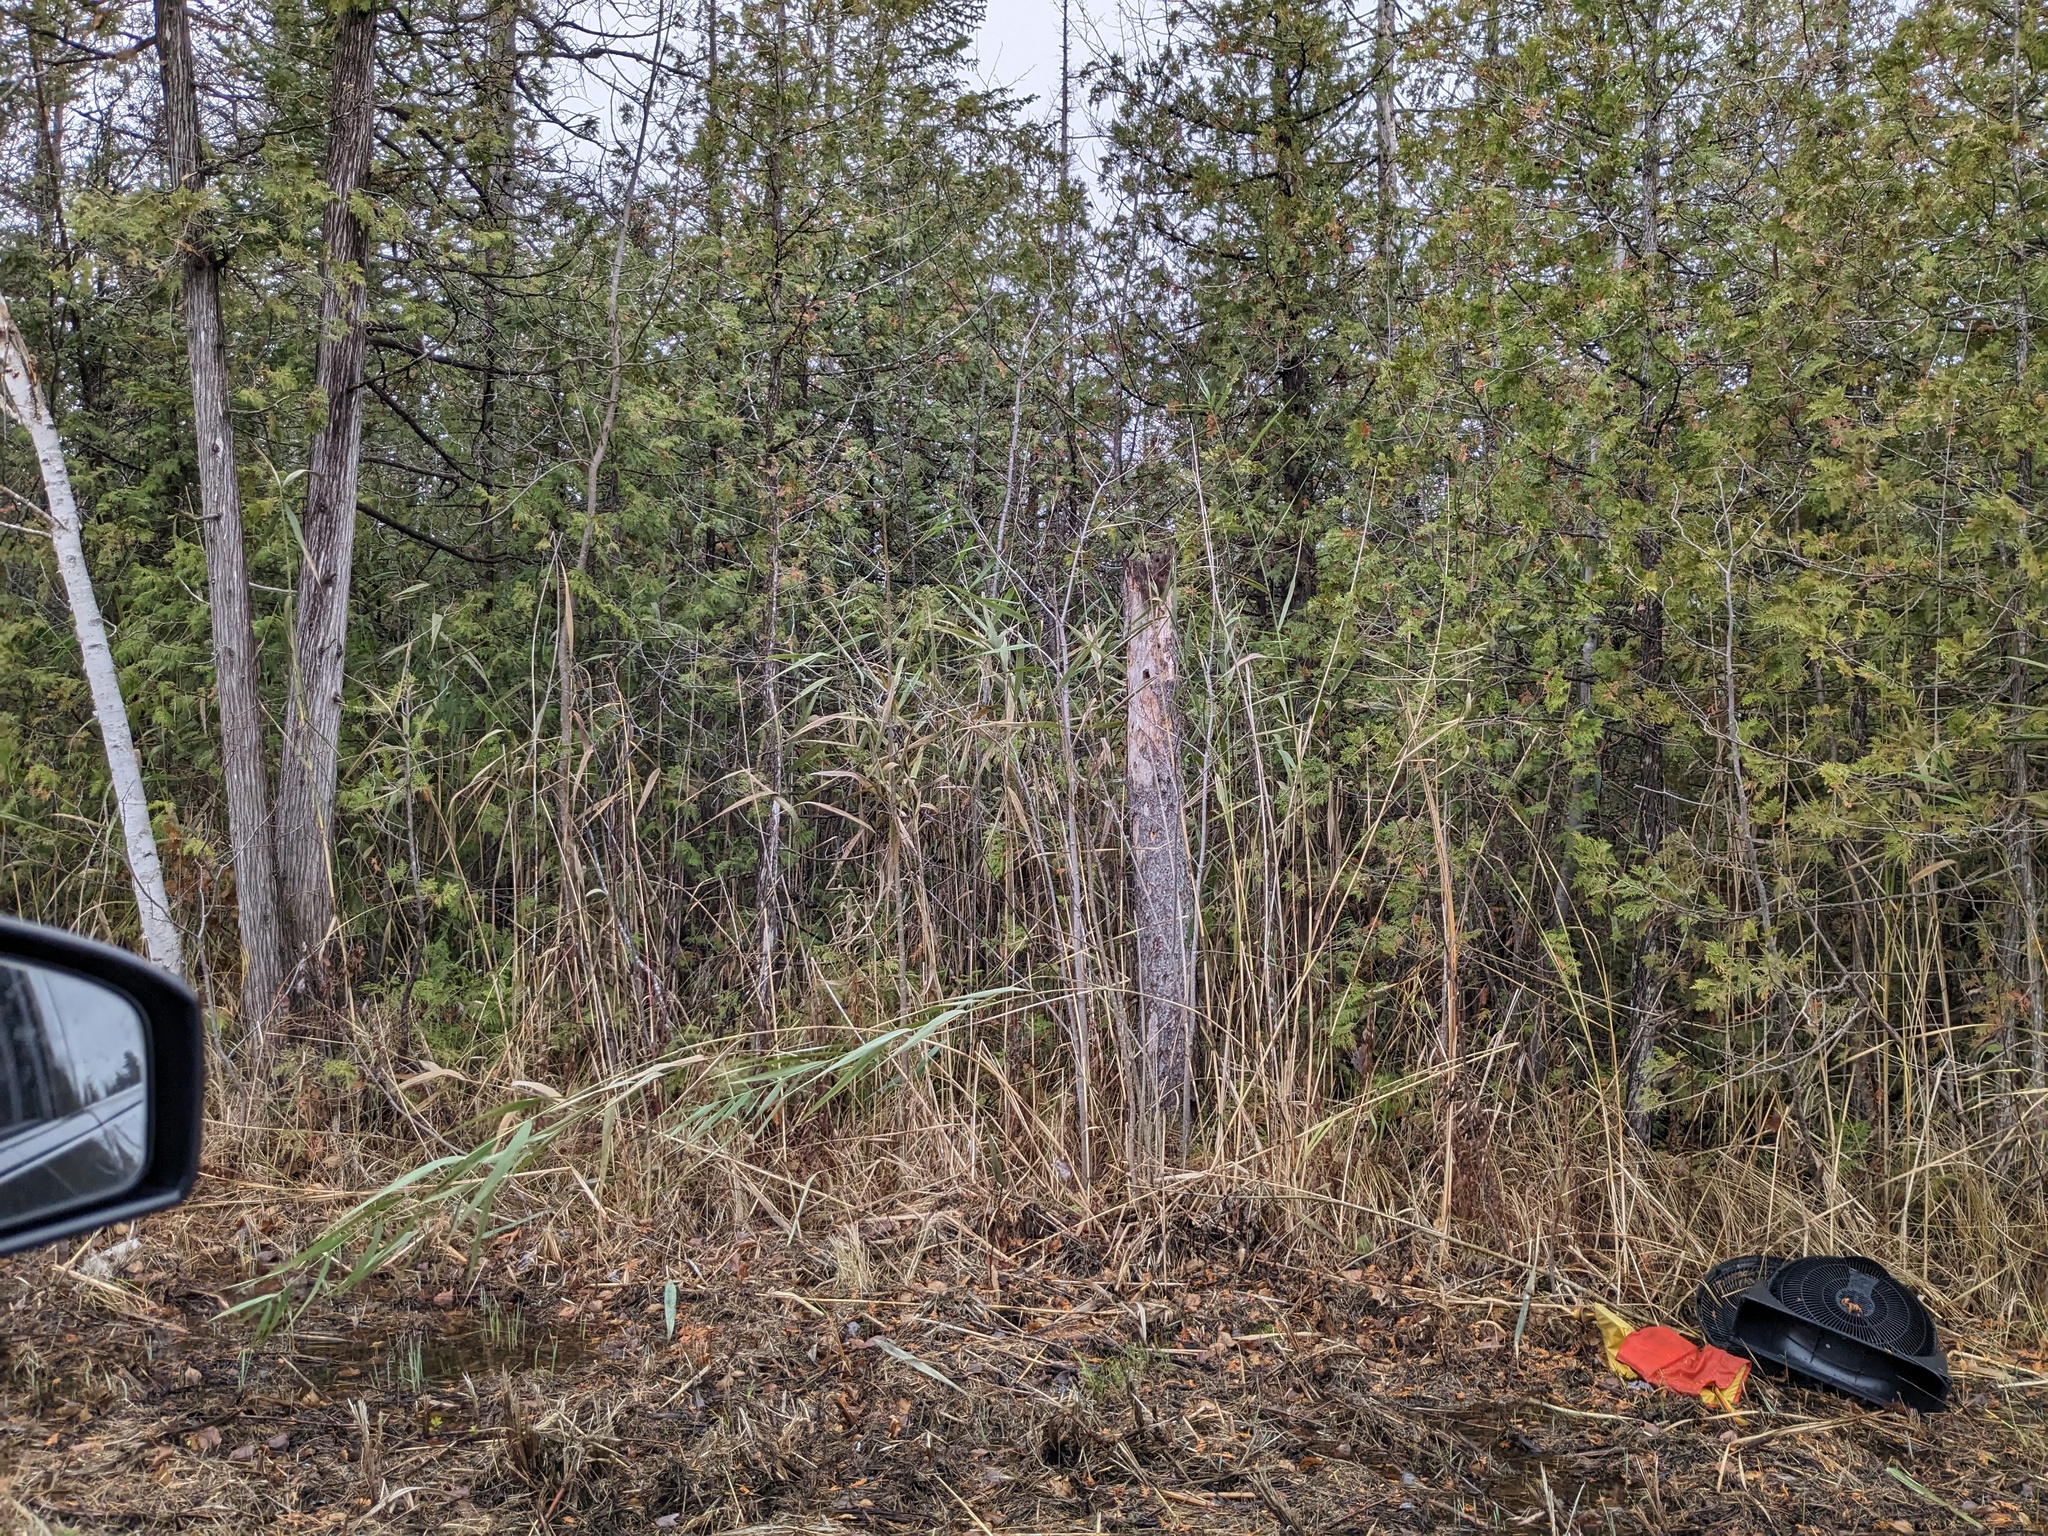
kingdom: Plantae
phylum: Tracheophyta
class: Liliopsida
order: Poales
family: Poaceae
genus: Phragmites
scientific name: Phragmites australis
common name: Common reed
